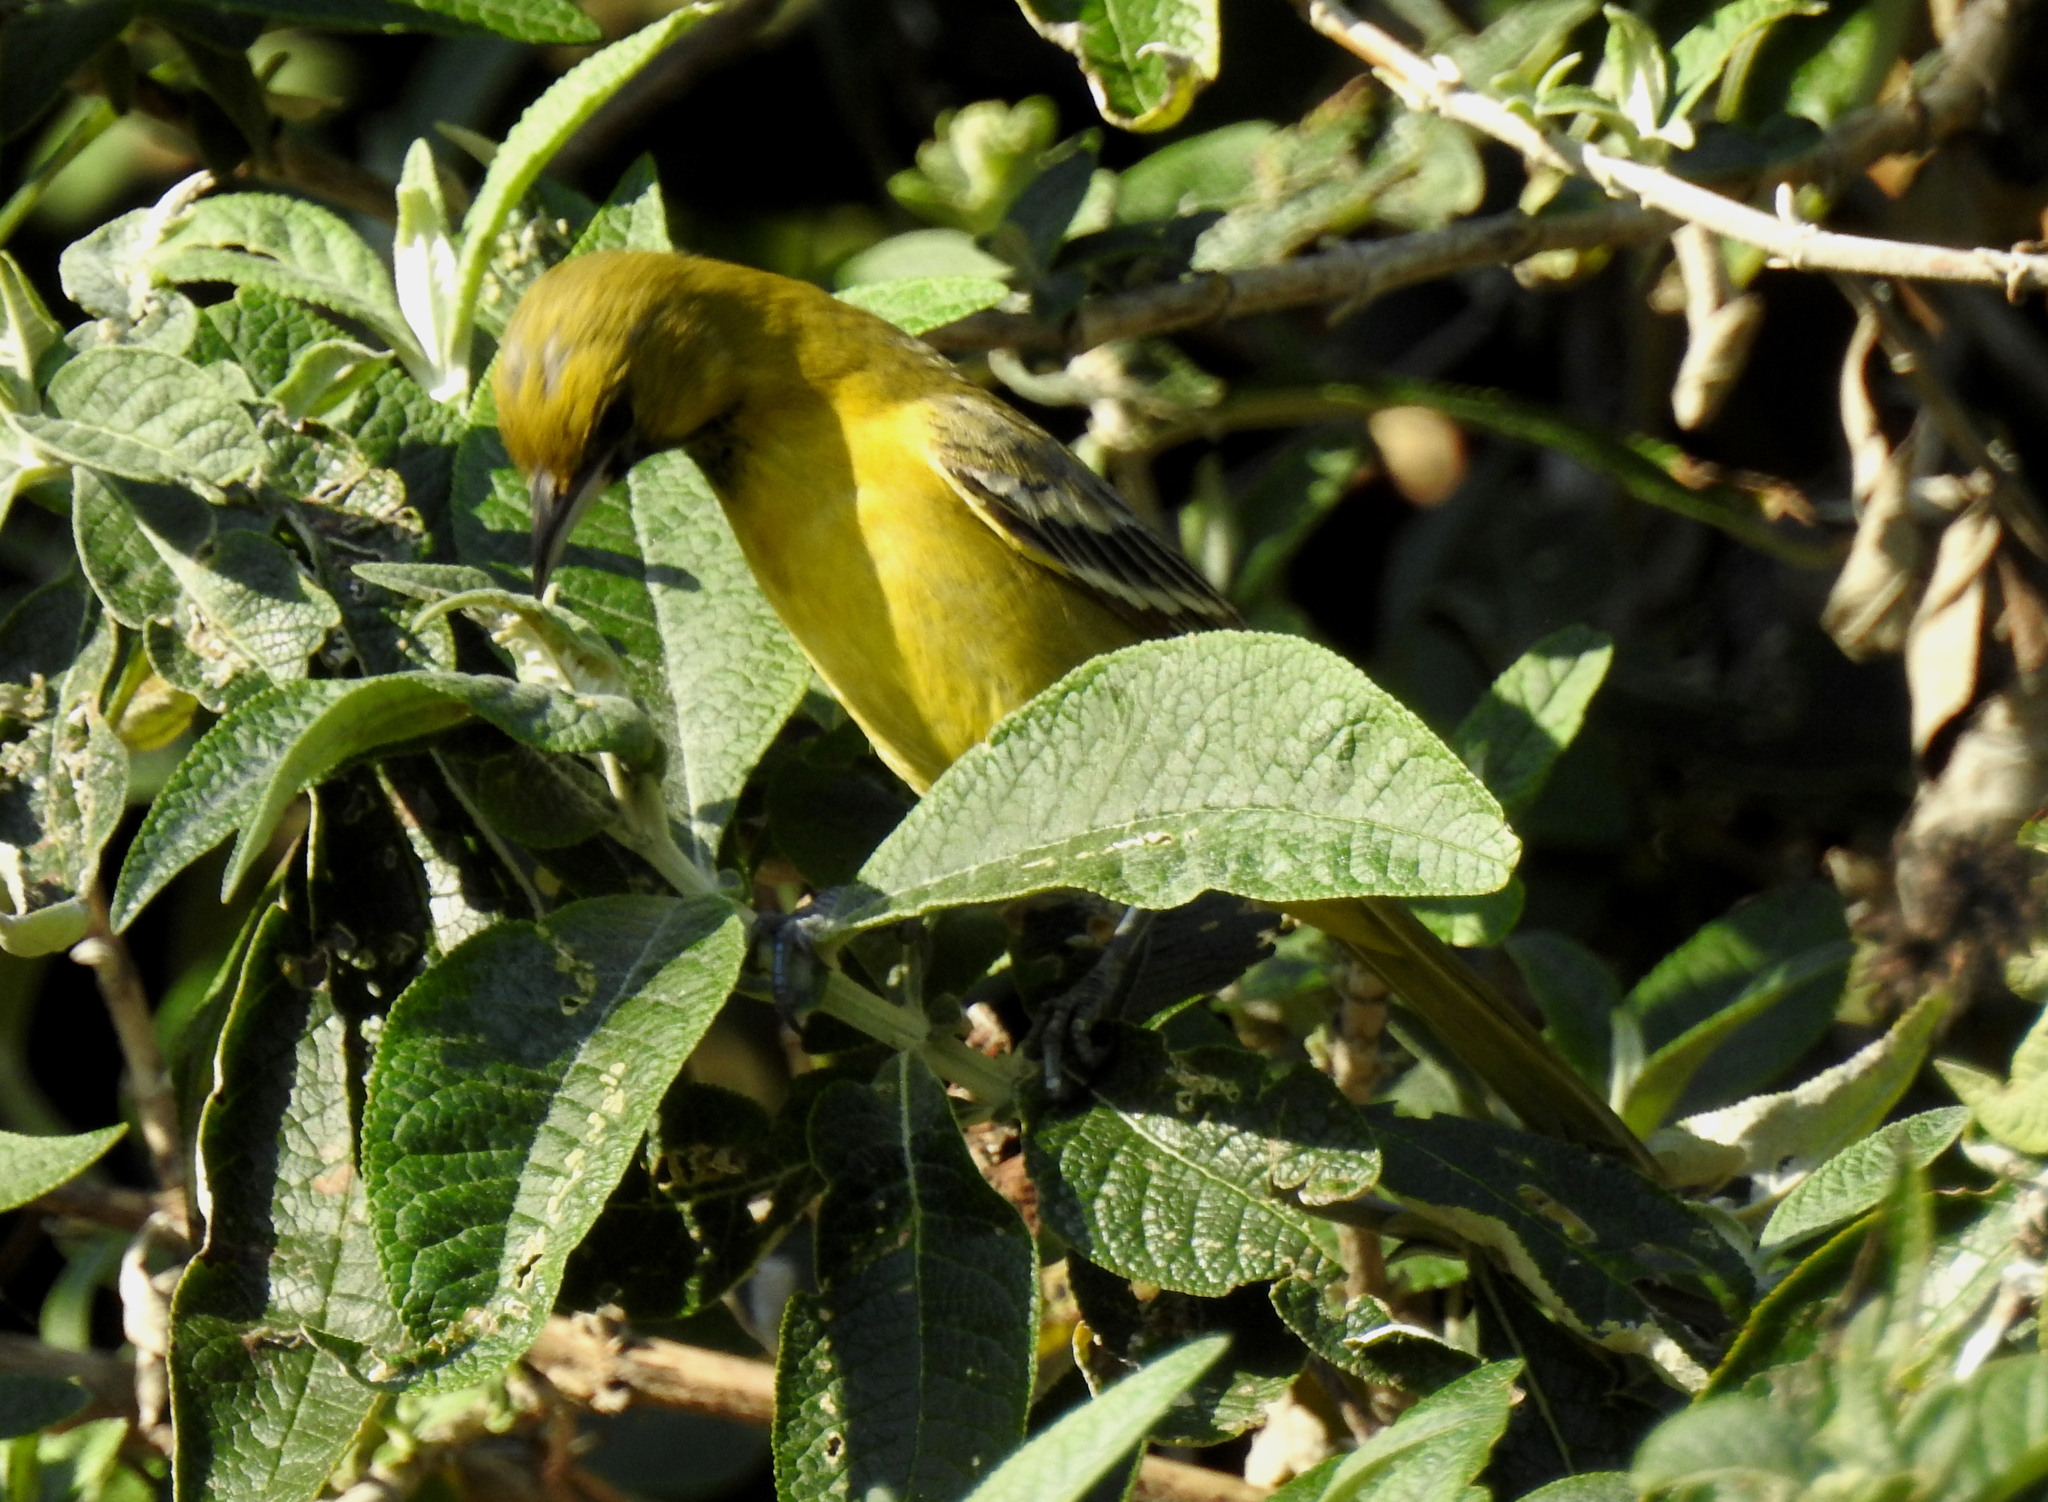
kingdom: Animalia
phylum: Chordata
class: Aves
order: Passeriformes
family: Icteridae
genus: Icterus
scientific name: Icterus spurius
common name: Orchard oriole
